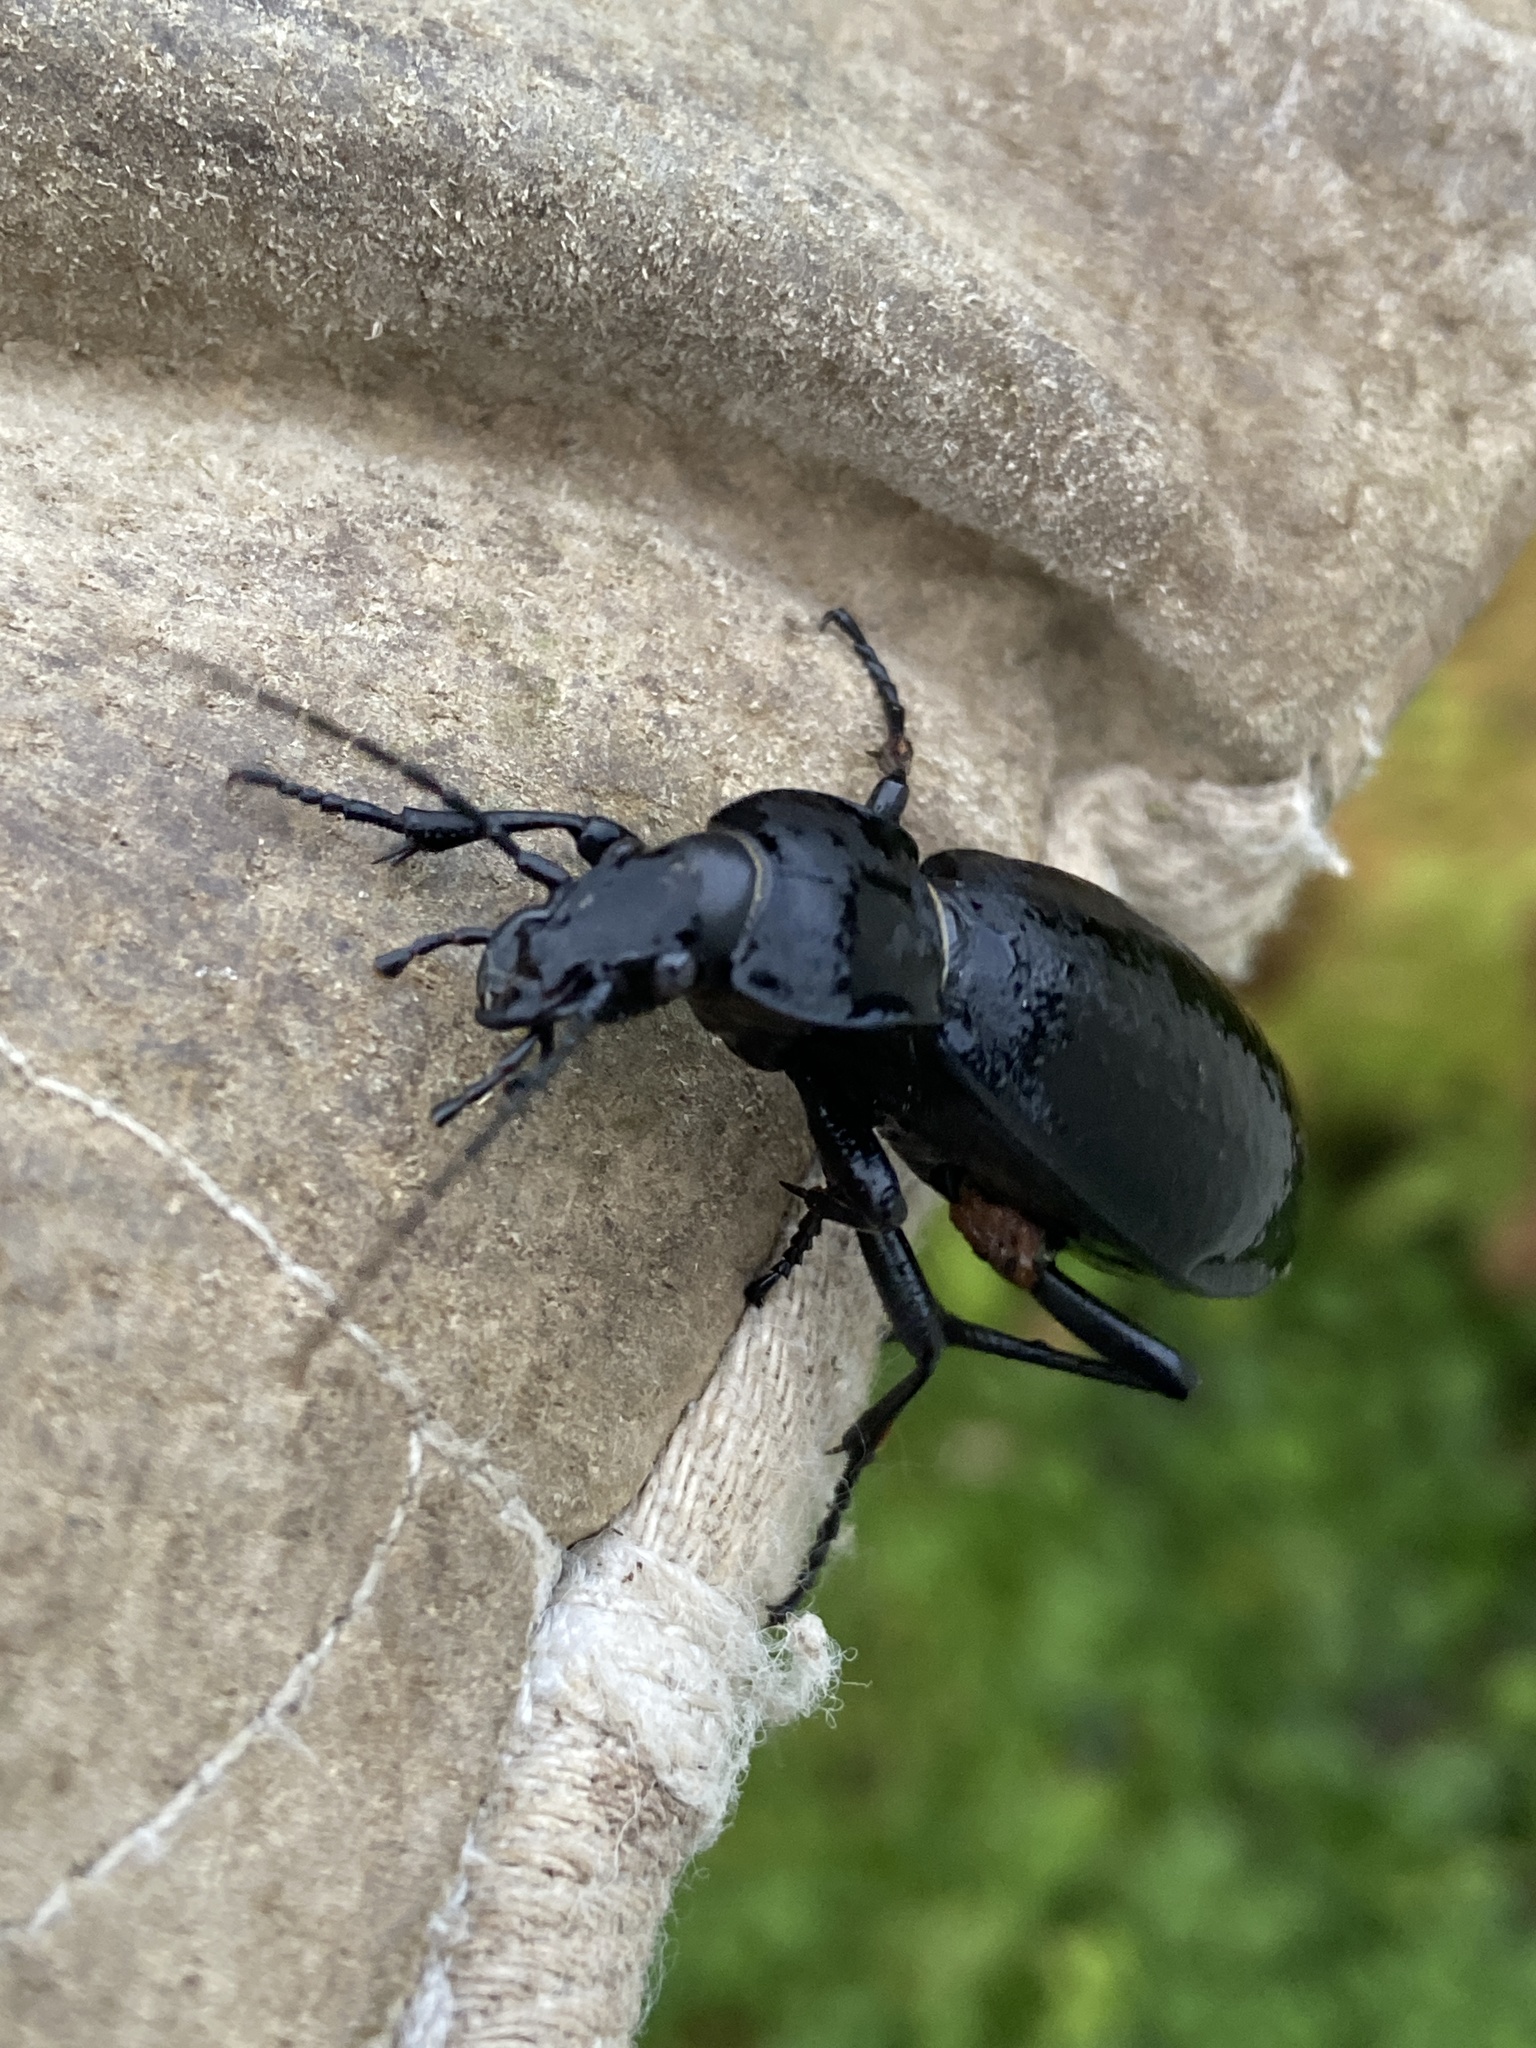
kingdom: Animalia
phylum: Arthropoda
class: Insecta
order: Coleoptera
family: Carabidae
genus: Carabus
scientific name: Carabus coriaceus
